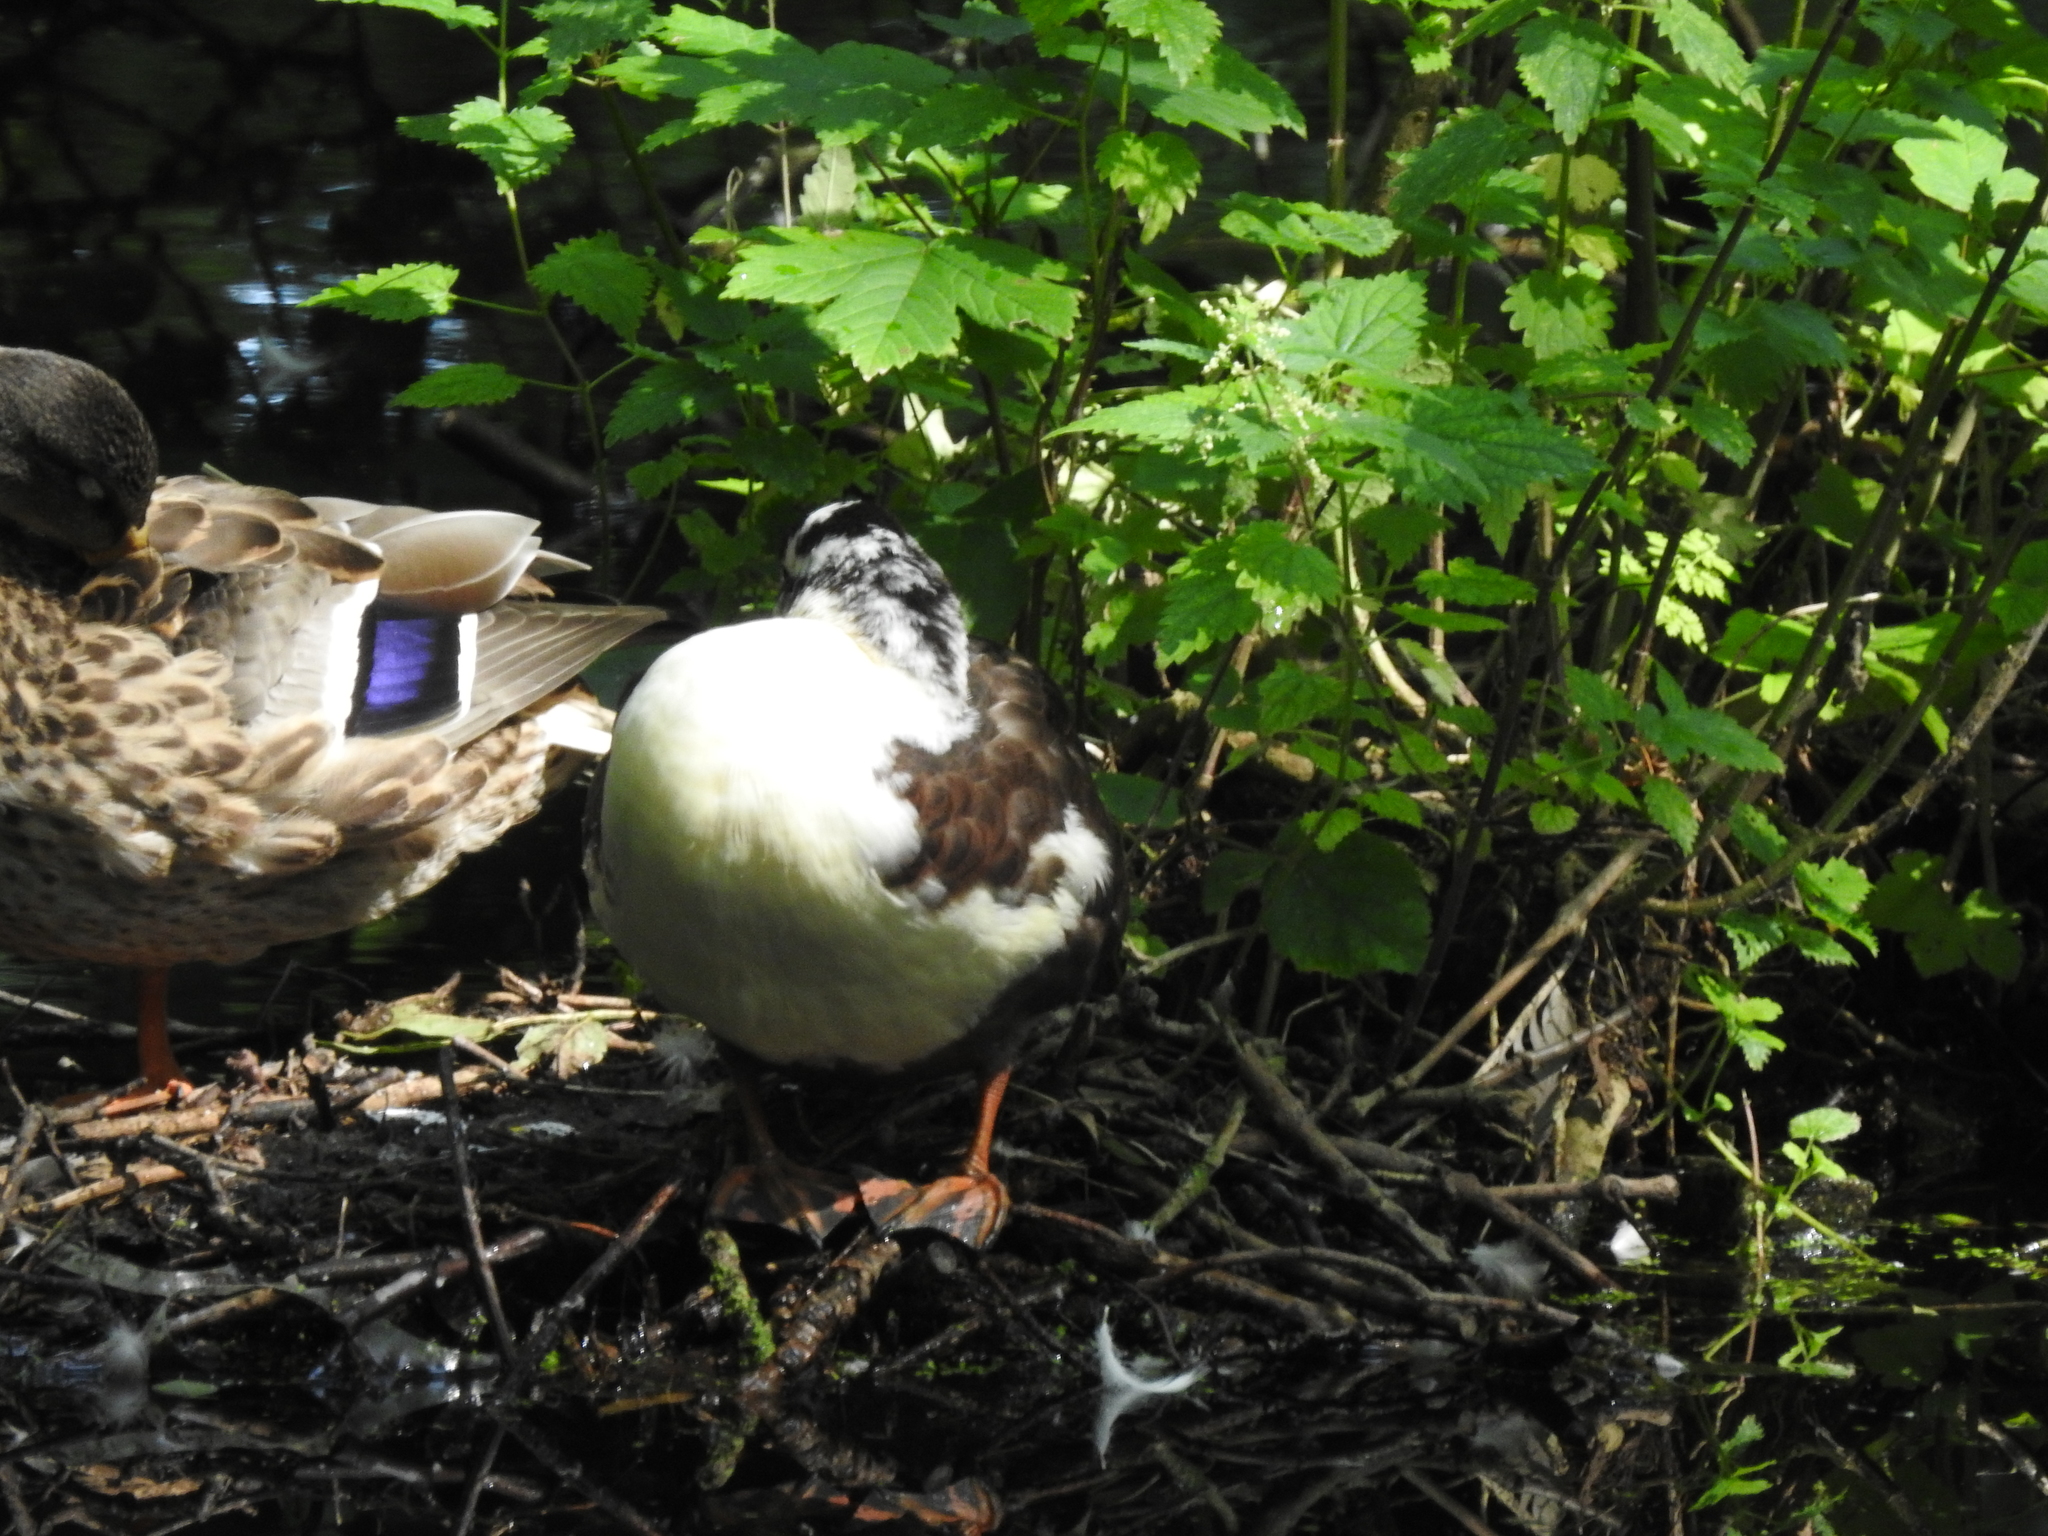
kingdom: Animalia
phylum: Chordata
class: Aves
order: Anseriformes
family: Anatidae
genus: Anas
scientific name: Anas platyrhynchos
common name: Mallard
